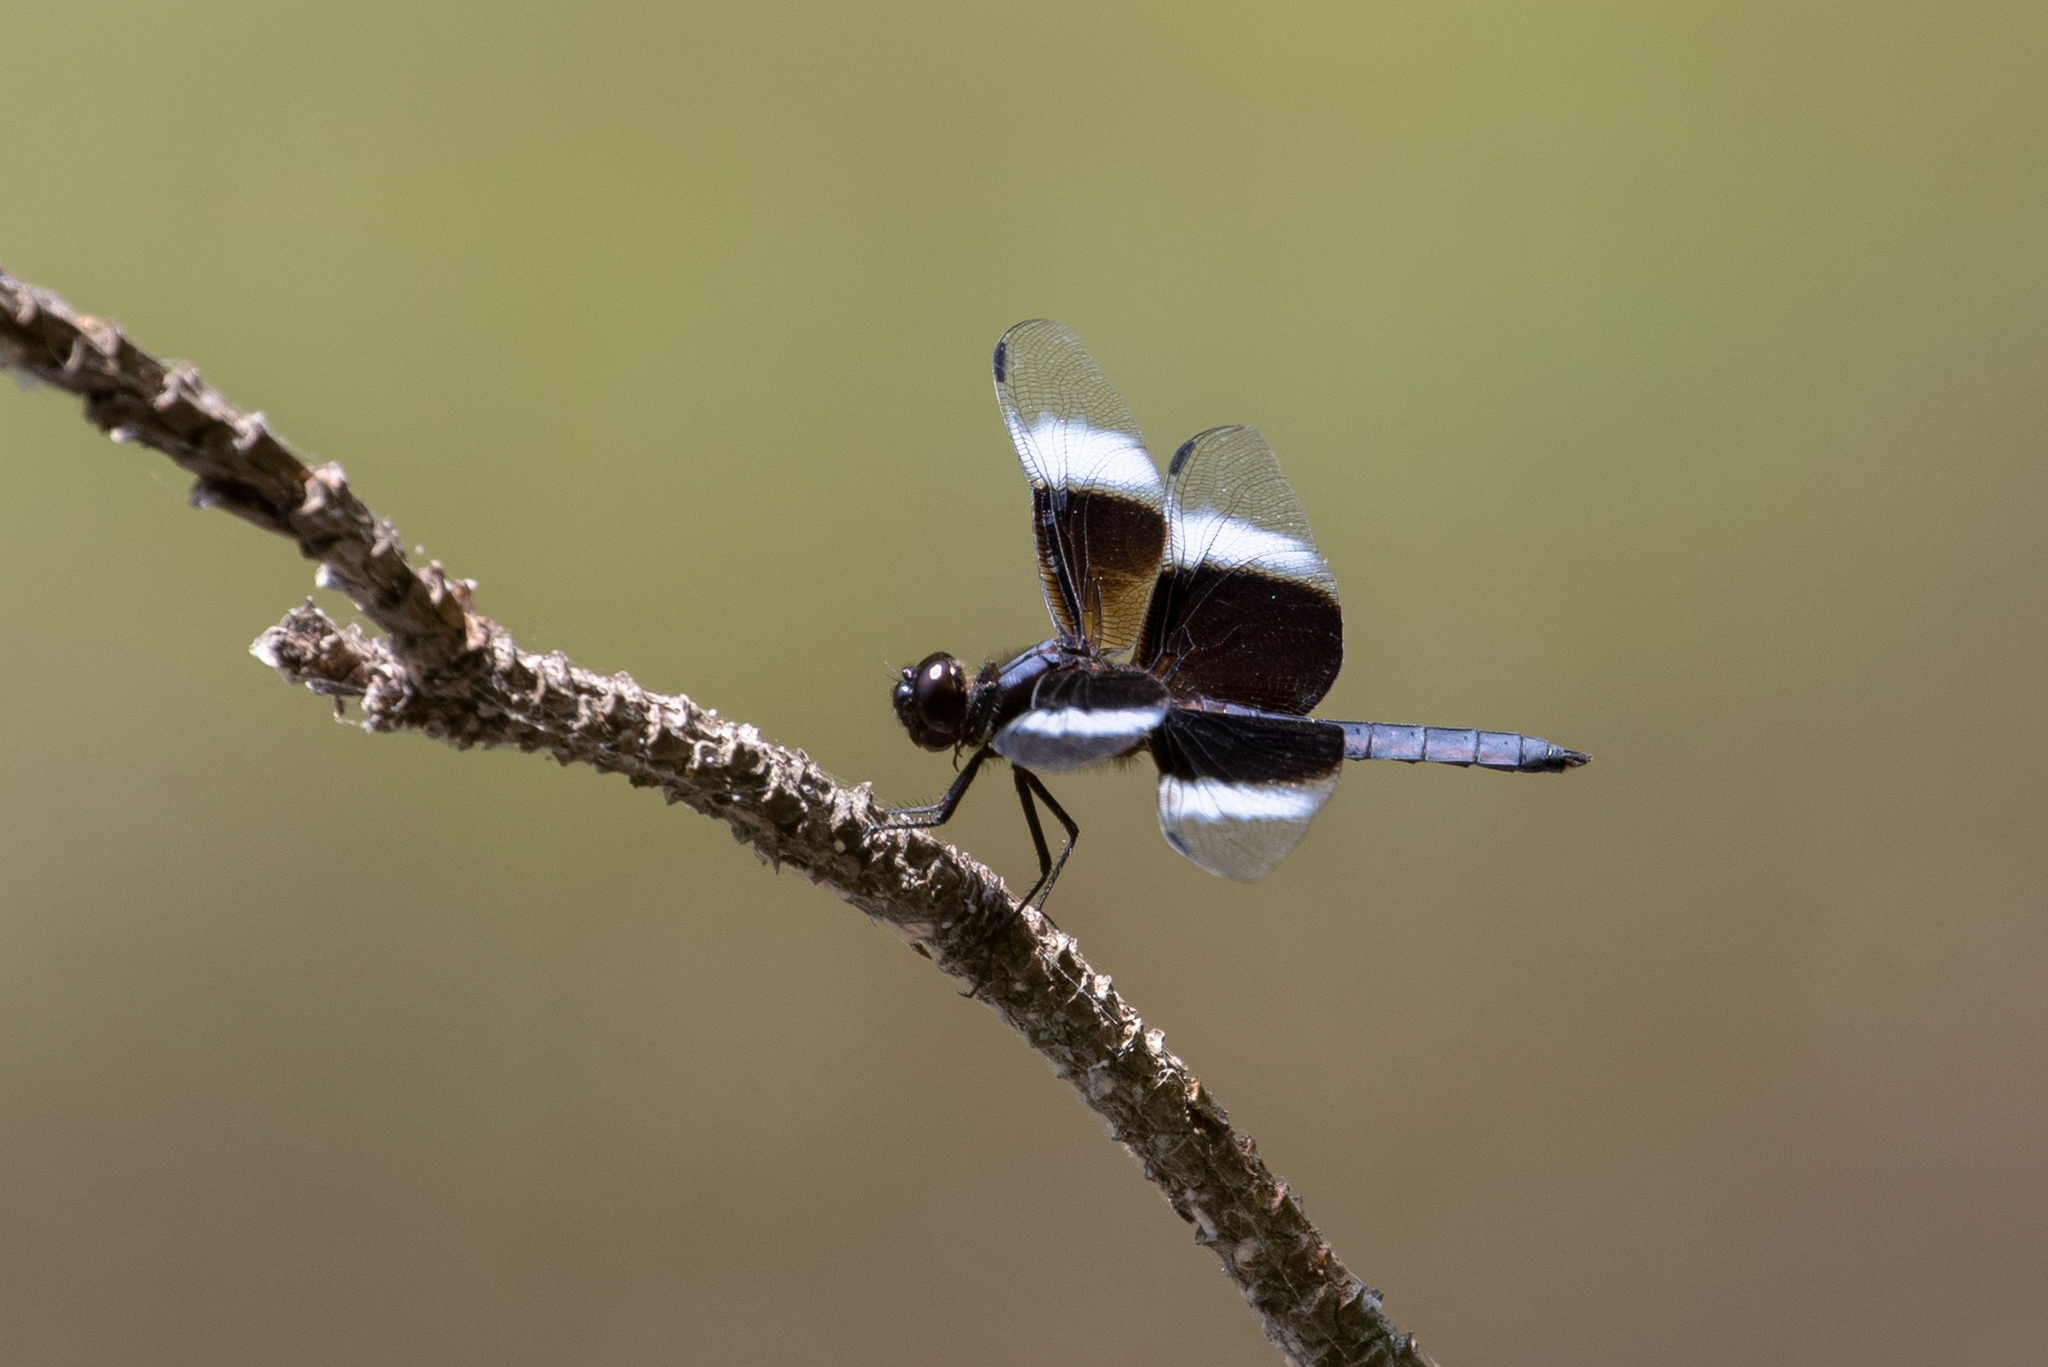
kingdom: Animalia
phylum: Arthropoda
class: Insecta
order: Odonata
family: Libellulidae
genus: Libellula
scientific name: Libellula luctuosa
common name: Widow skimmer
